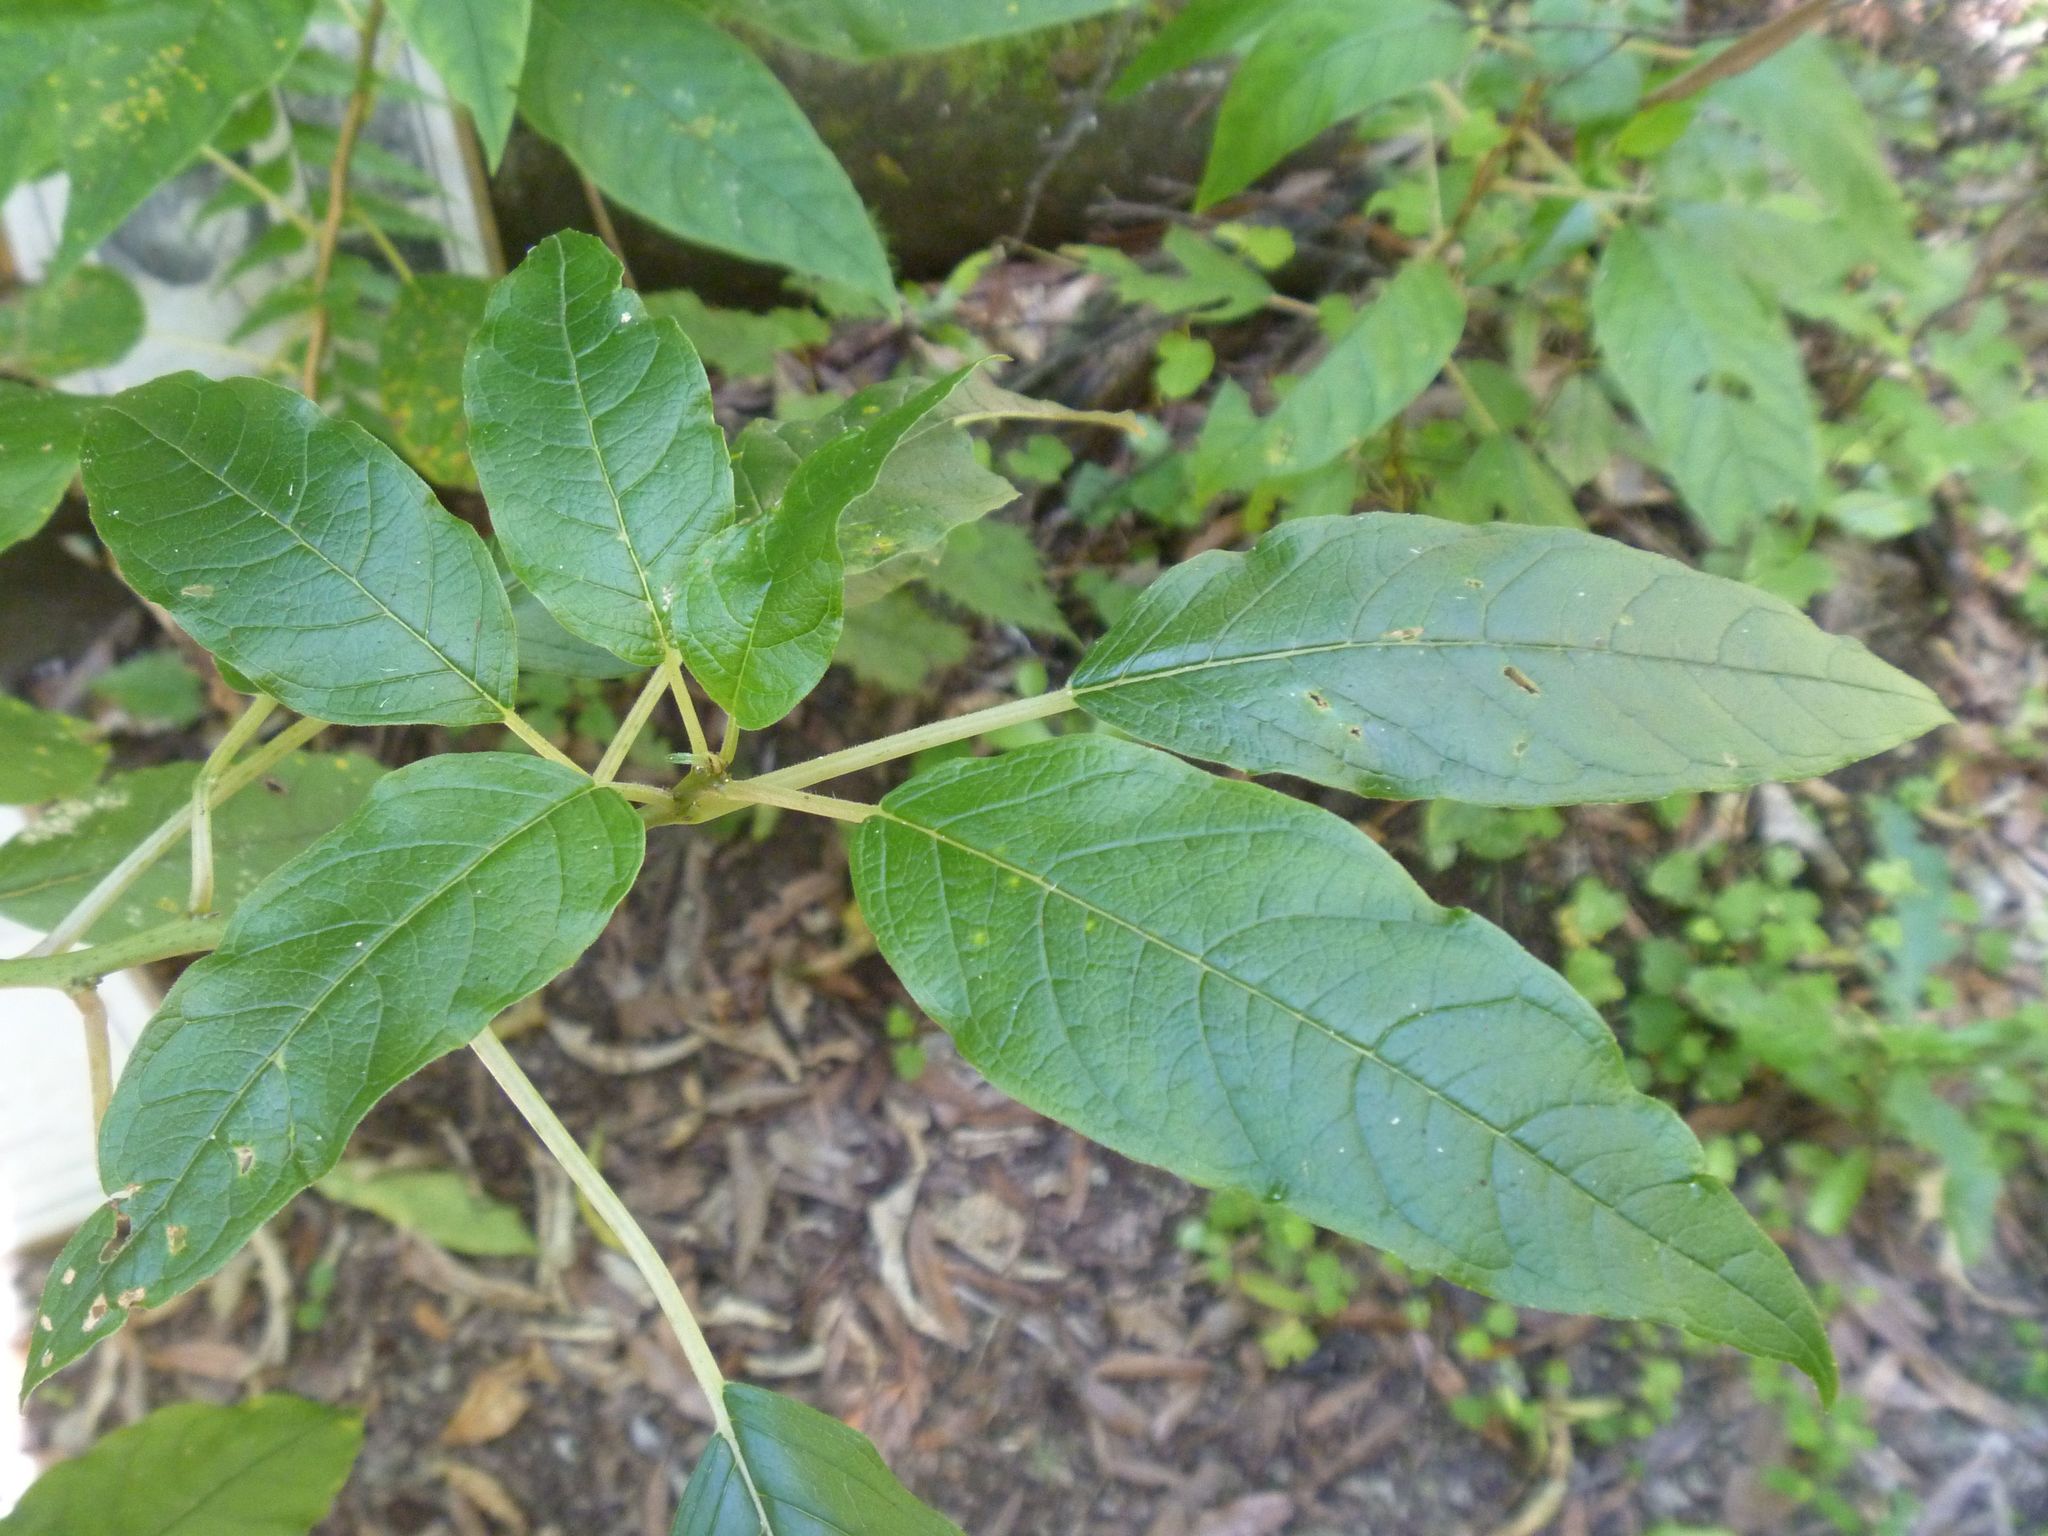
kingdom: Plantae
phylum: Tracheophyta
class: Magnoliopsida
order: Myrtales
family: Onagraceae
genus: Fuchsia
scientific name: Fuchsia excorticata
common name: Tree fuchsia
